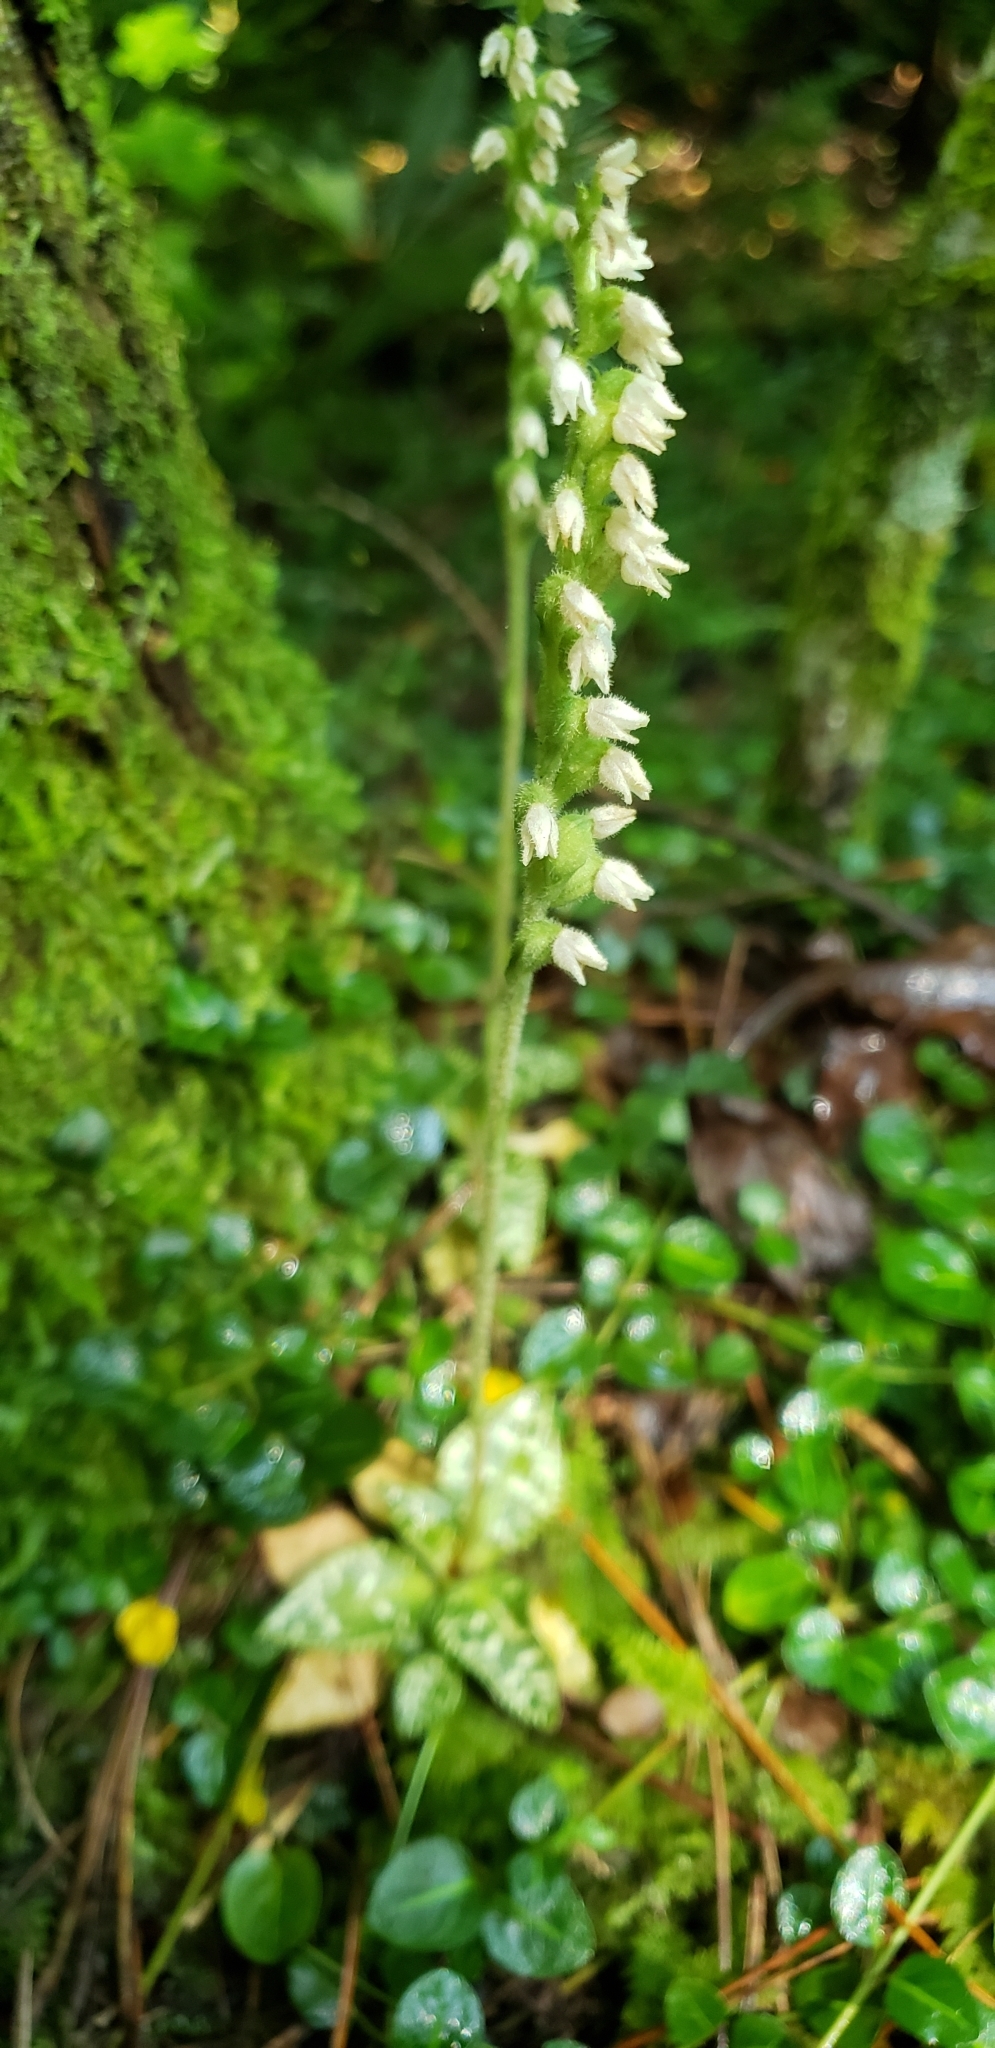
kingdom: Plantae
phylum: Tracheophyta
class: Liliopsida
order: Asparagales
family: Orchidaceae
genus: Goodyera
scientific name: Goodyera repens
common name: Creeping lady's-tresses
